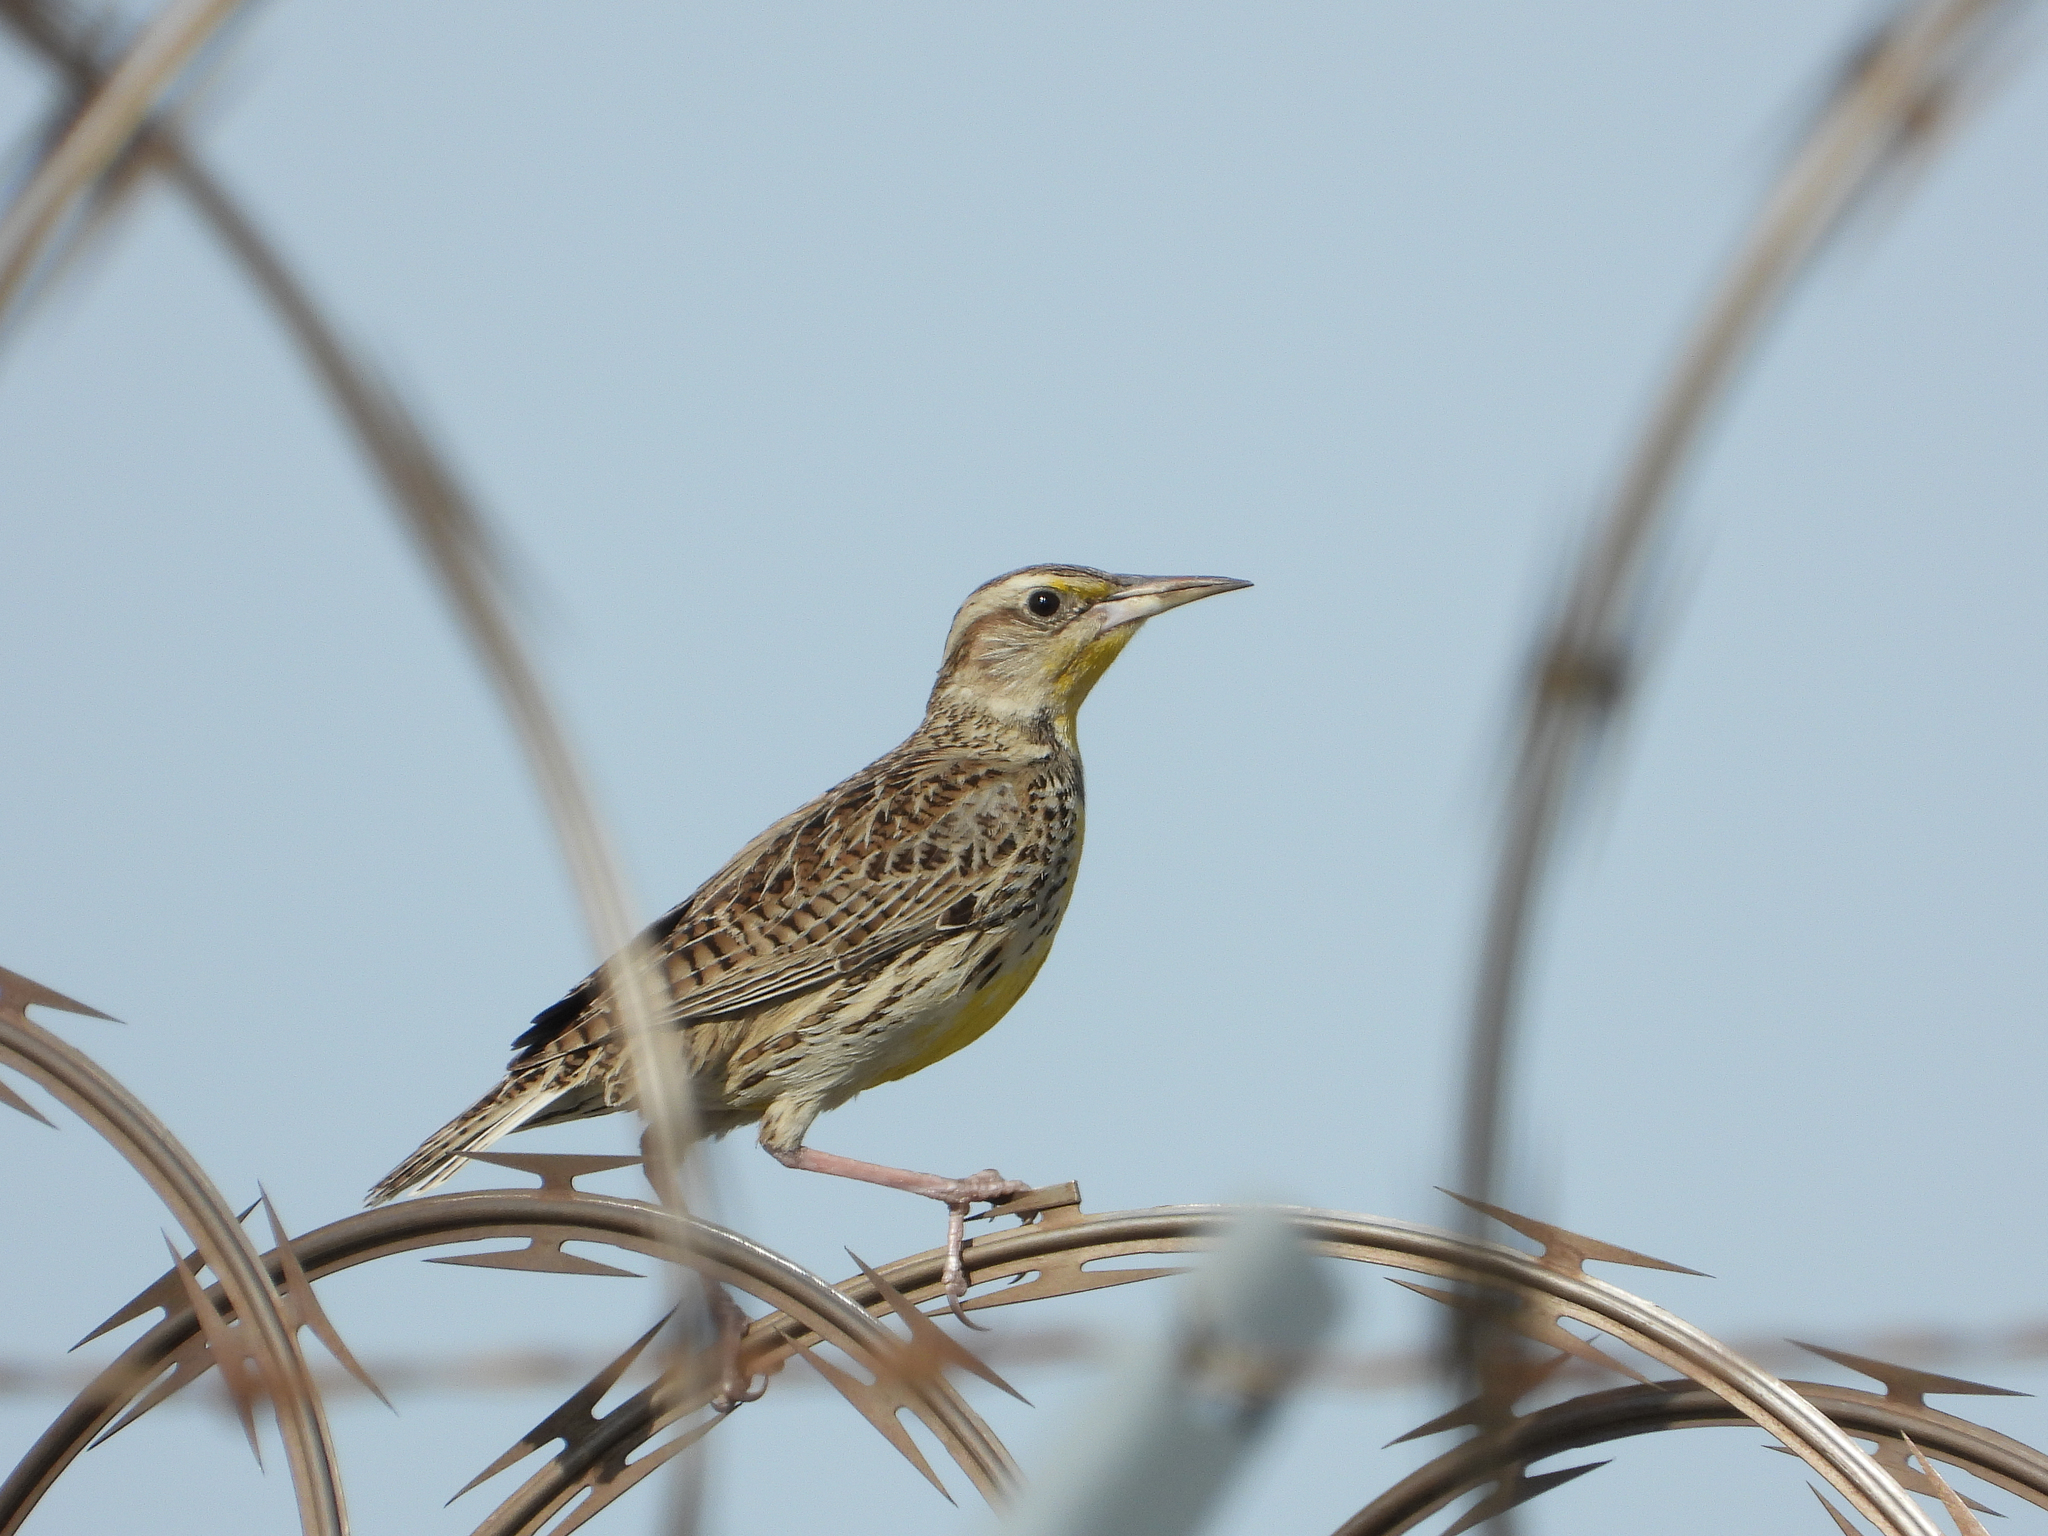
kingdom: Animalia
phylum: Chordata
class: Aves
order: Passeriformes
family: Icteridae
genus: Sturnella
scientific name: Sturnella neglecta
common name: Western meadowlark
